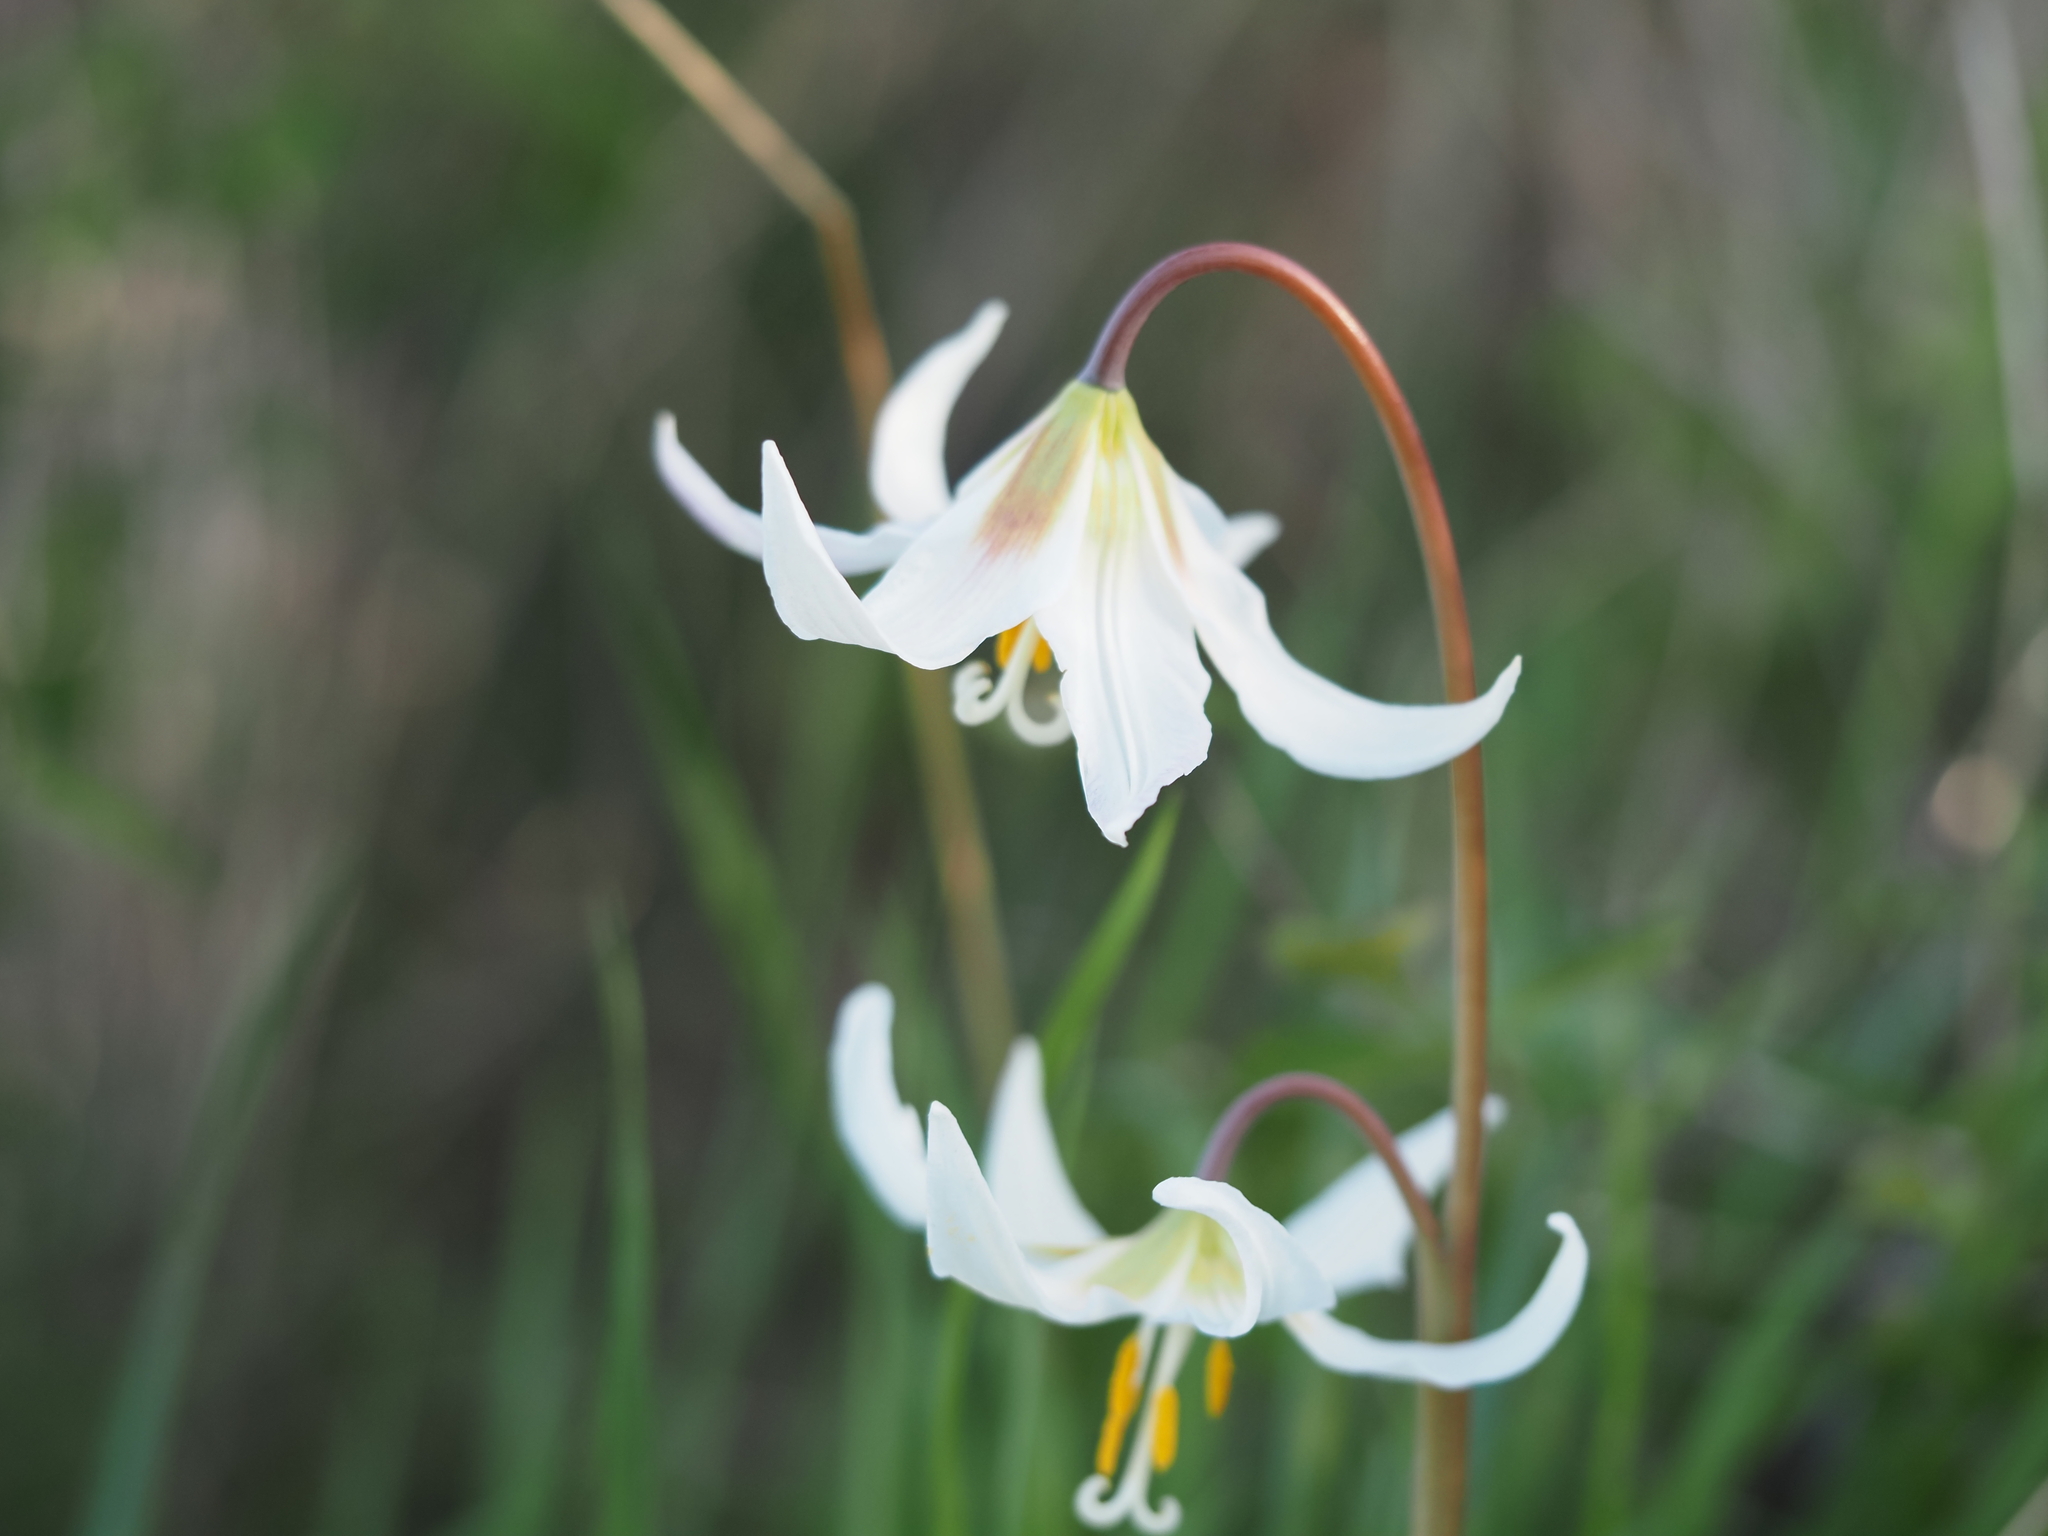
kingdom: Plantae
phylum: Tracheophyta
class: Liliopsida
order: Liliales
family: Liliaceae
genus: Erythronium
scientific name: Erythronium oregonum
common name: Giant adder's-tongue
